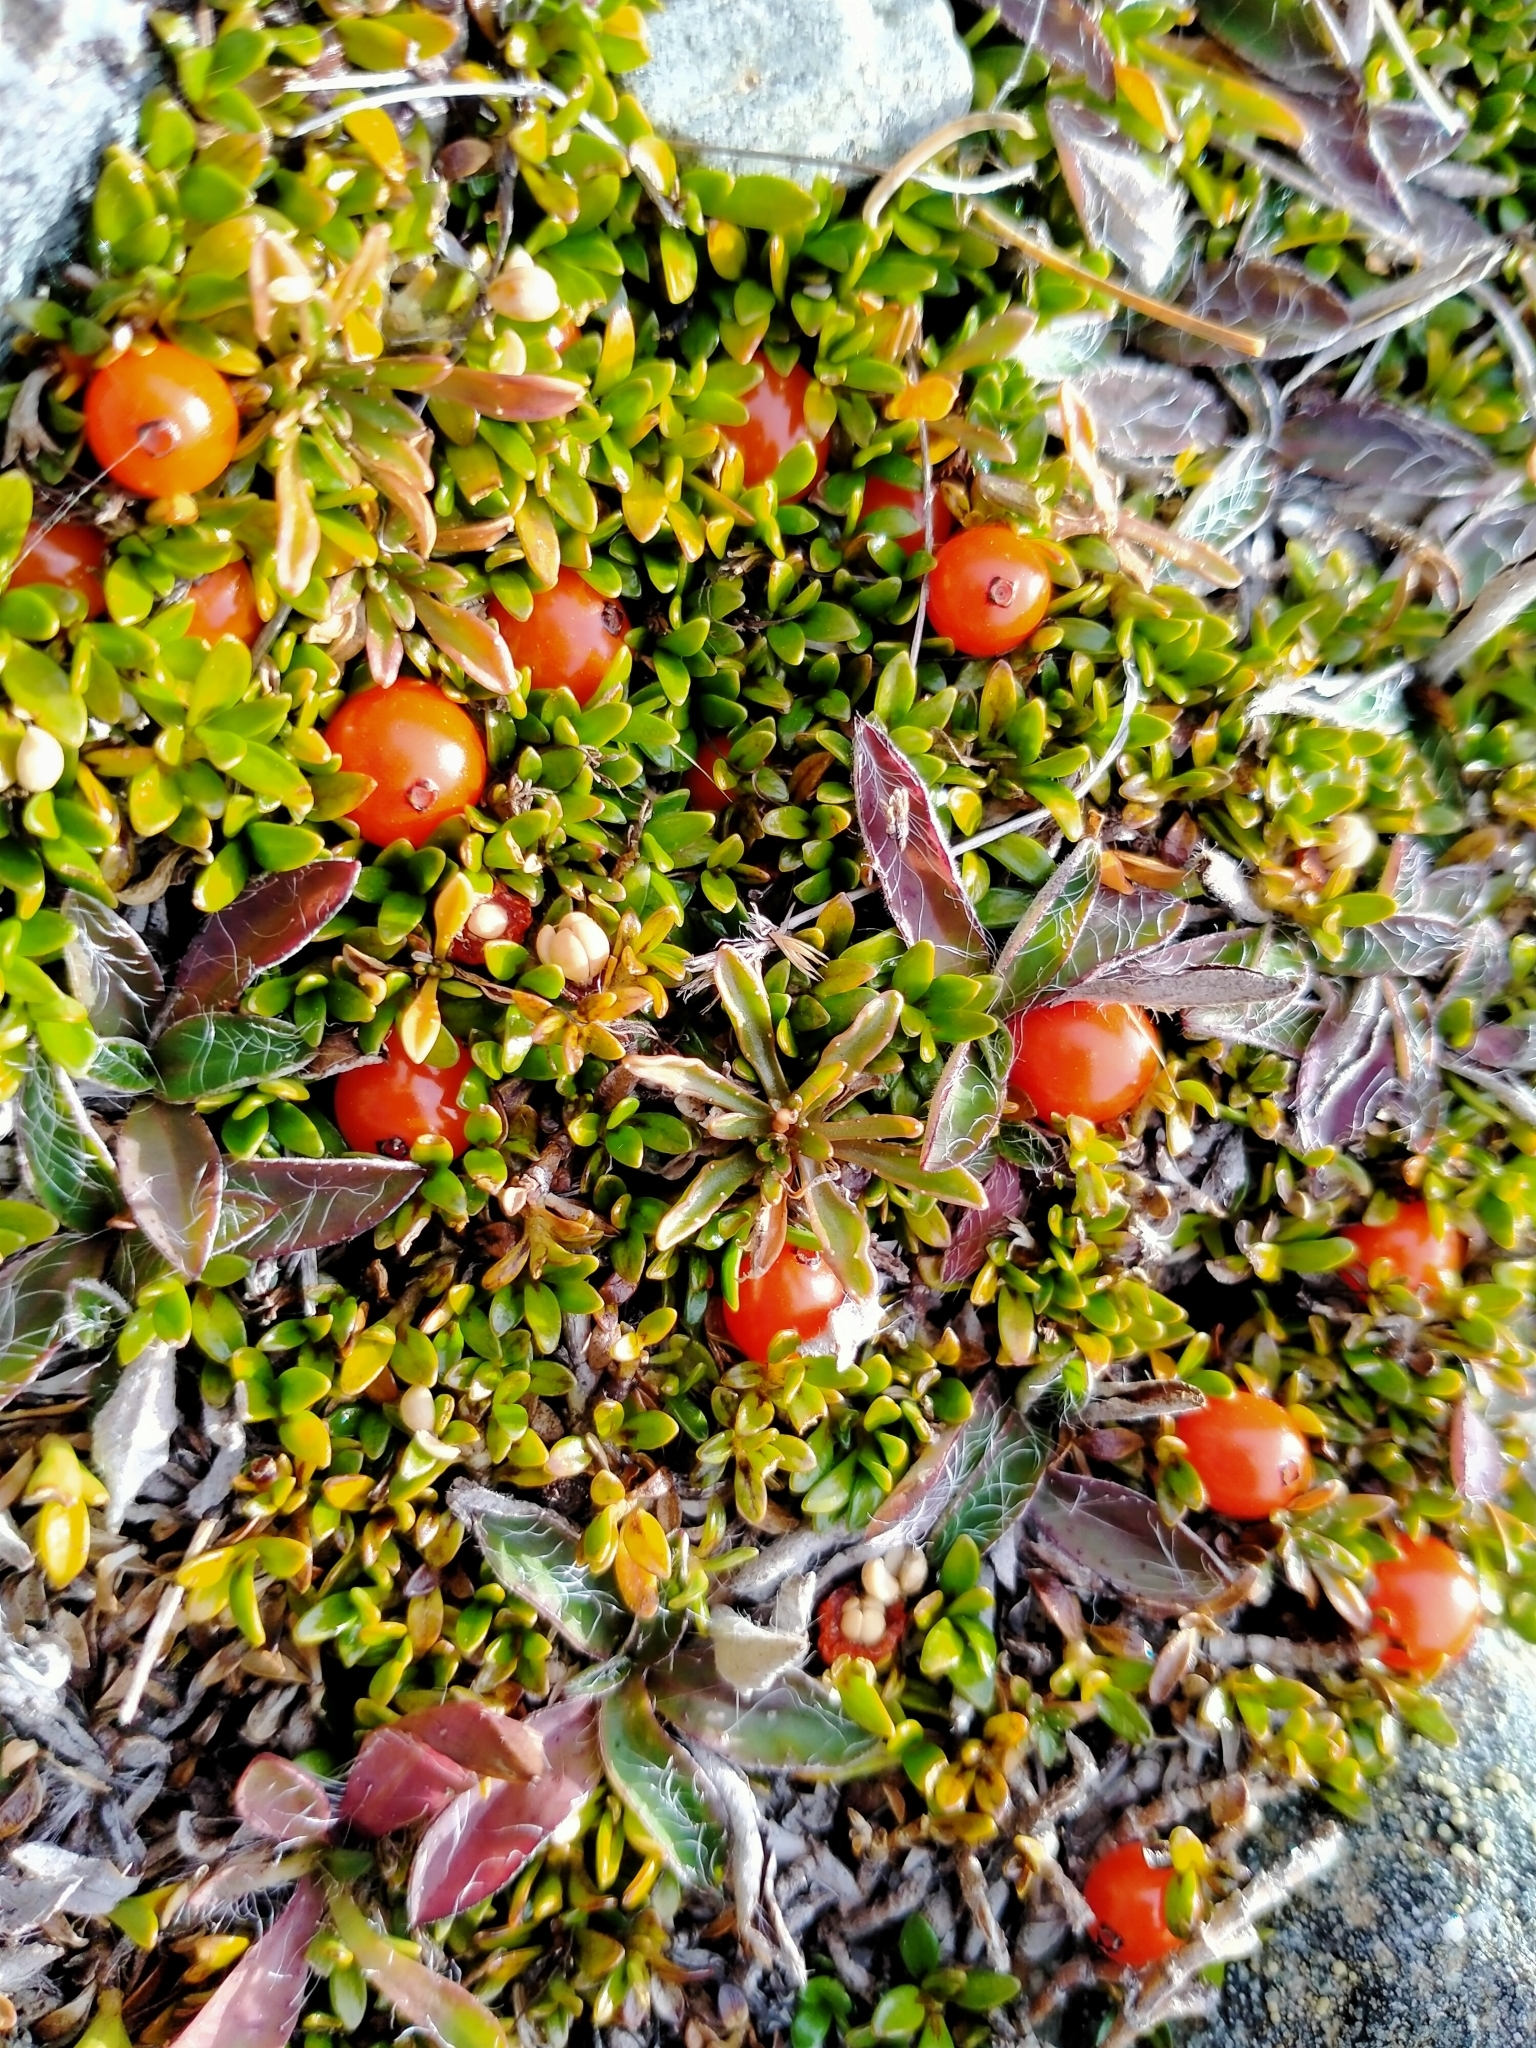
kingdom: Plantae
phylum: Tracheophyta
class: Magnoliopsida
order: Gentianales
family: Rubiaceae
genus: Coprosma
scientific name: Coprosma perpusilla
